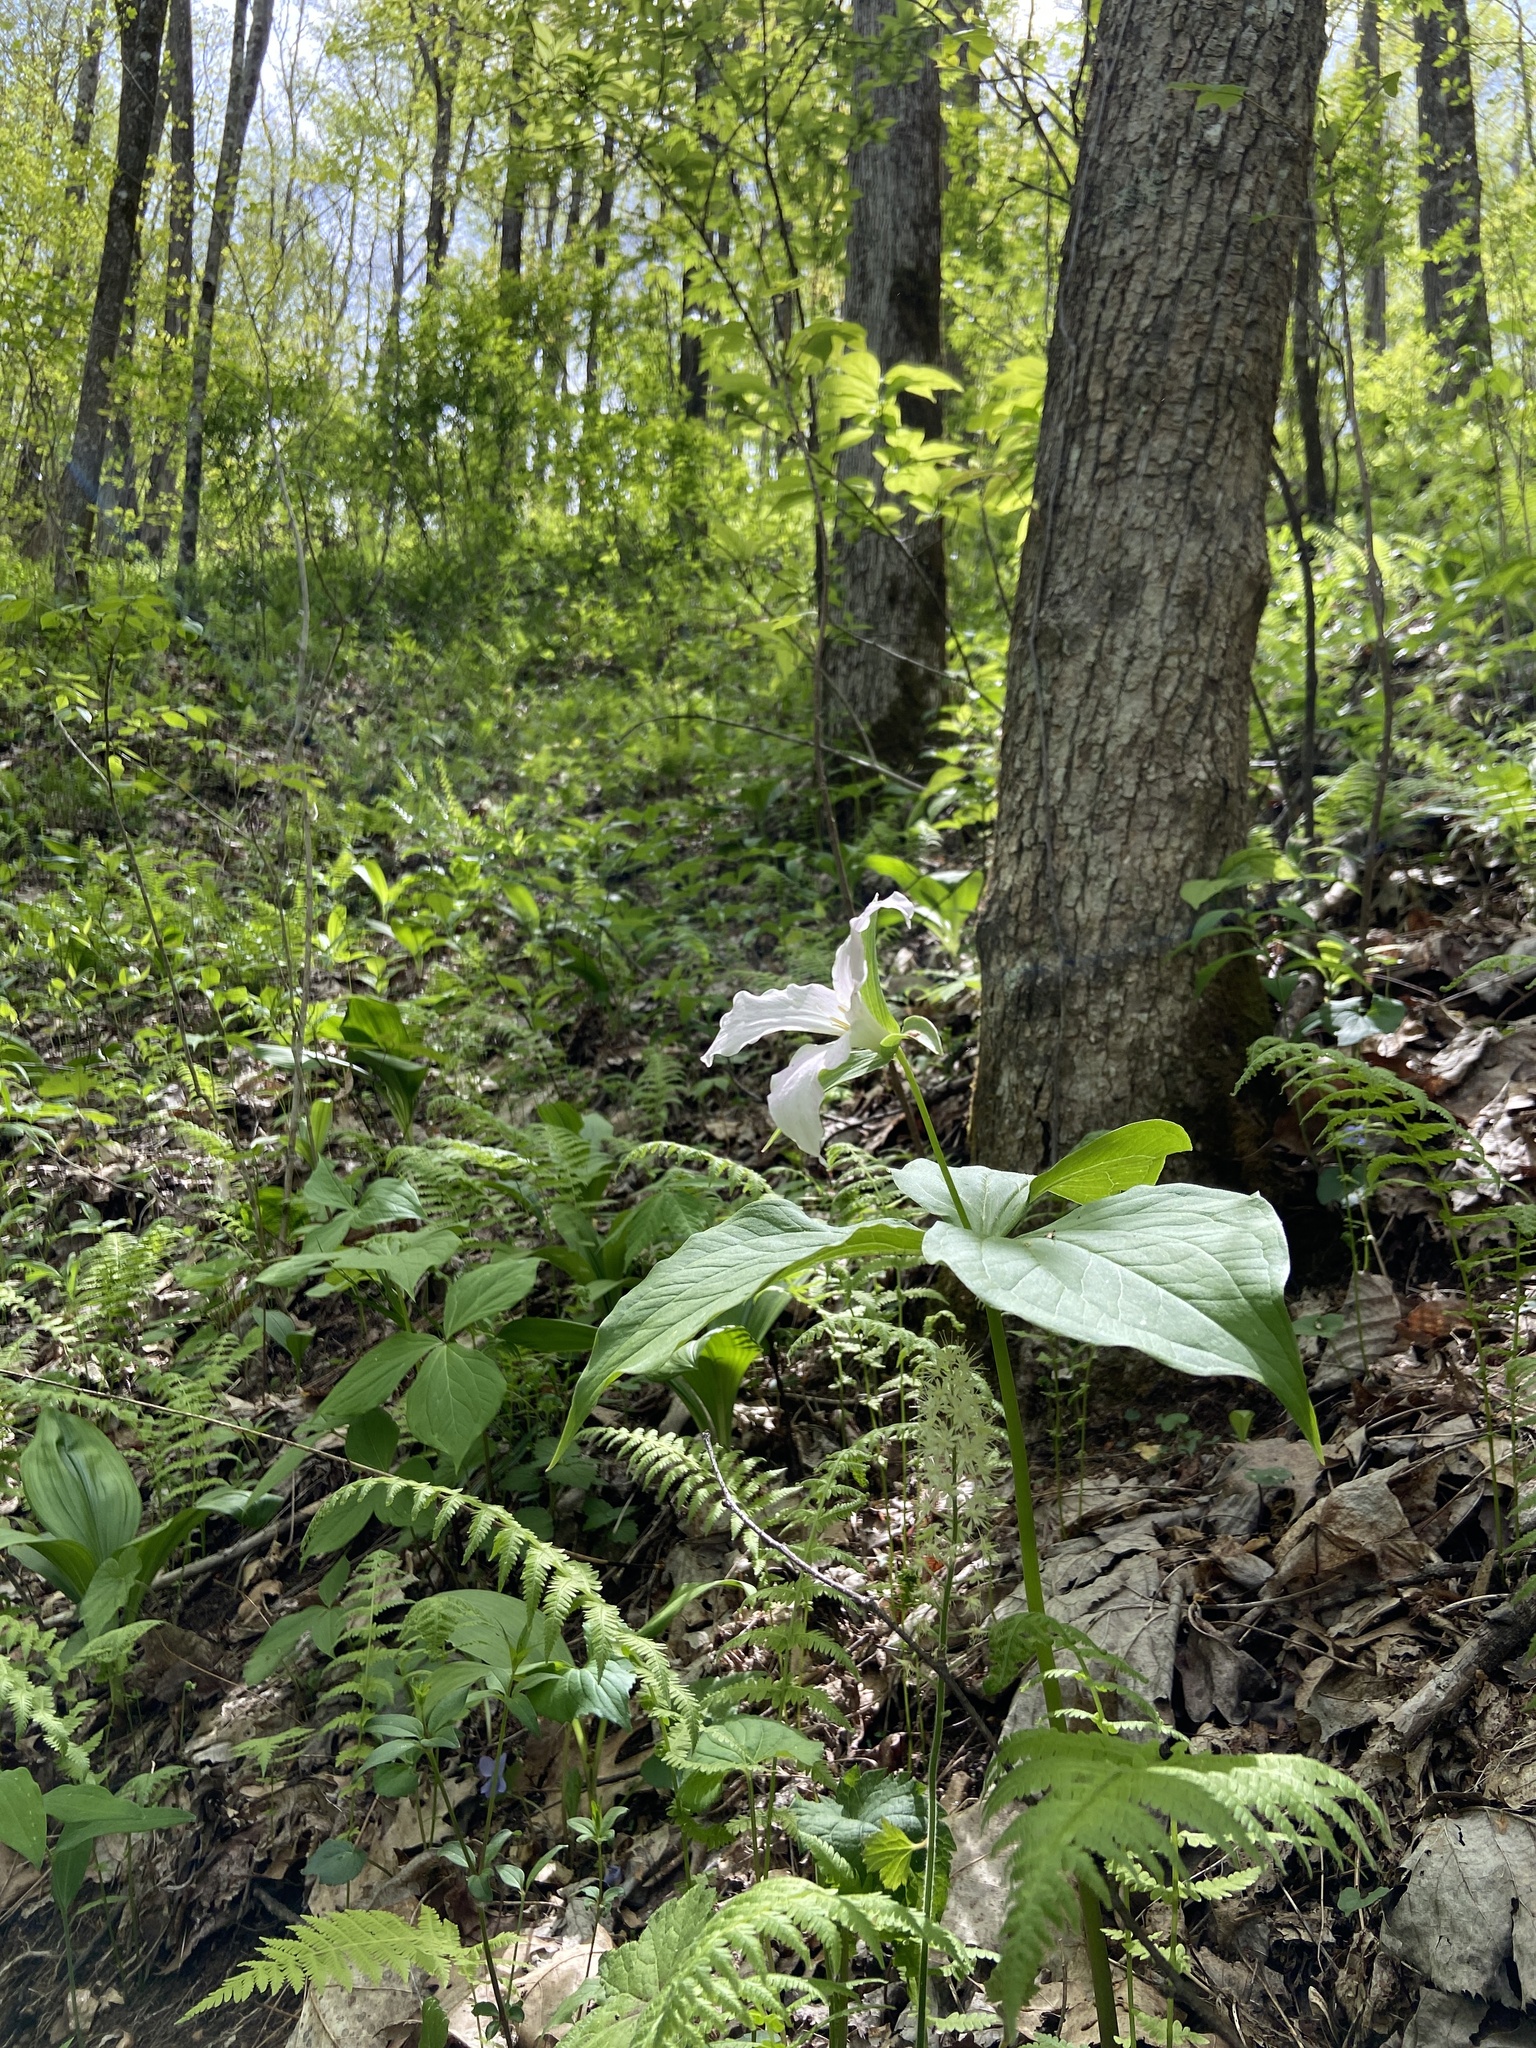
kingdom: Plantae
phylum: Tracheophyta
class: Liliopsida
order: Liliales
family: Melanthiaceae
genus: Trillium
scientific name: Trillium grandiflorum
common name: Great white trillium
